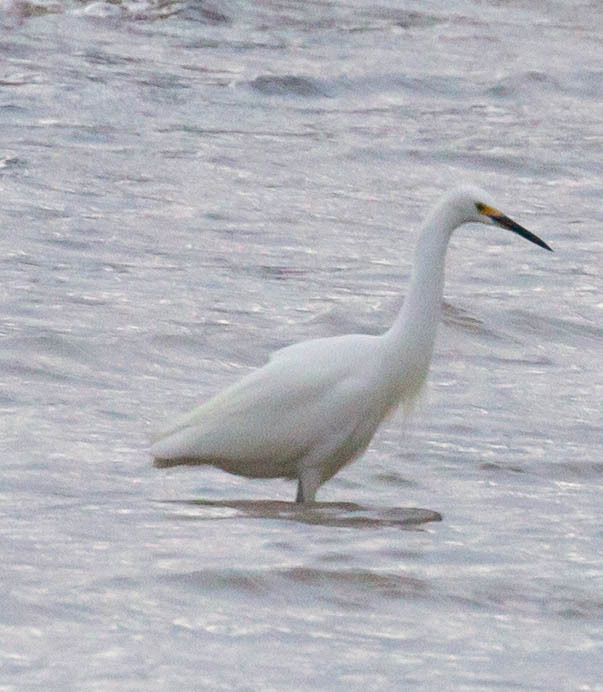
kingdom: Animalia
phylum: Chordata
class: Aves
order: Pelecaniformes
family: Ardeidae
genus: Egretta
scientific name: Egretta thula
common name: Snowy egret
